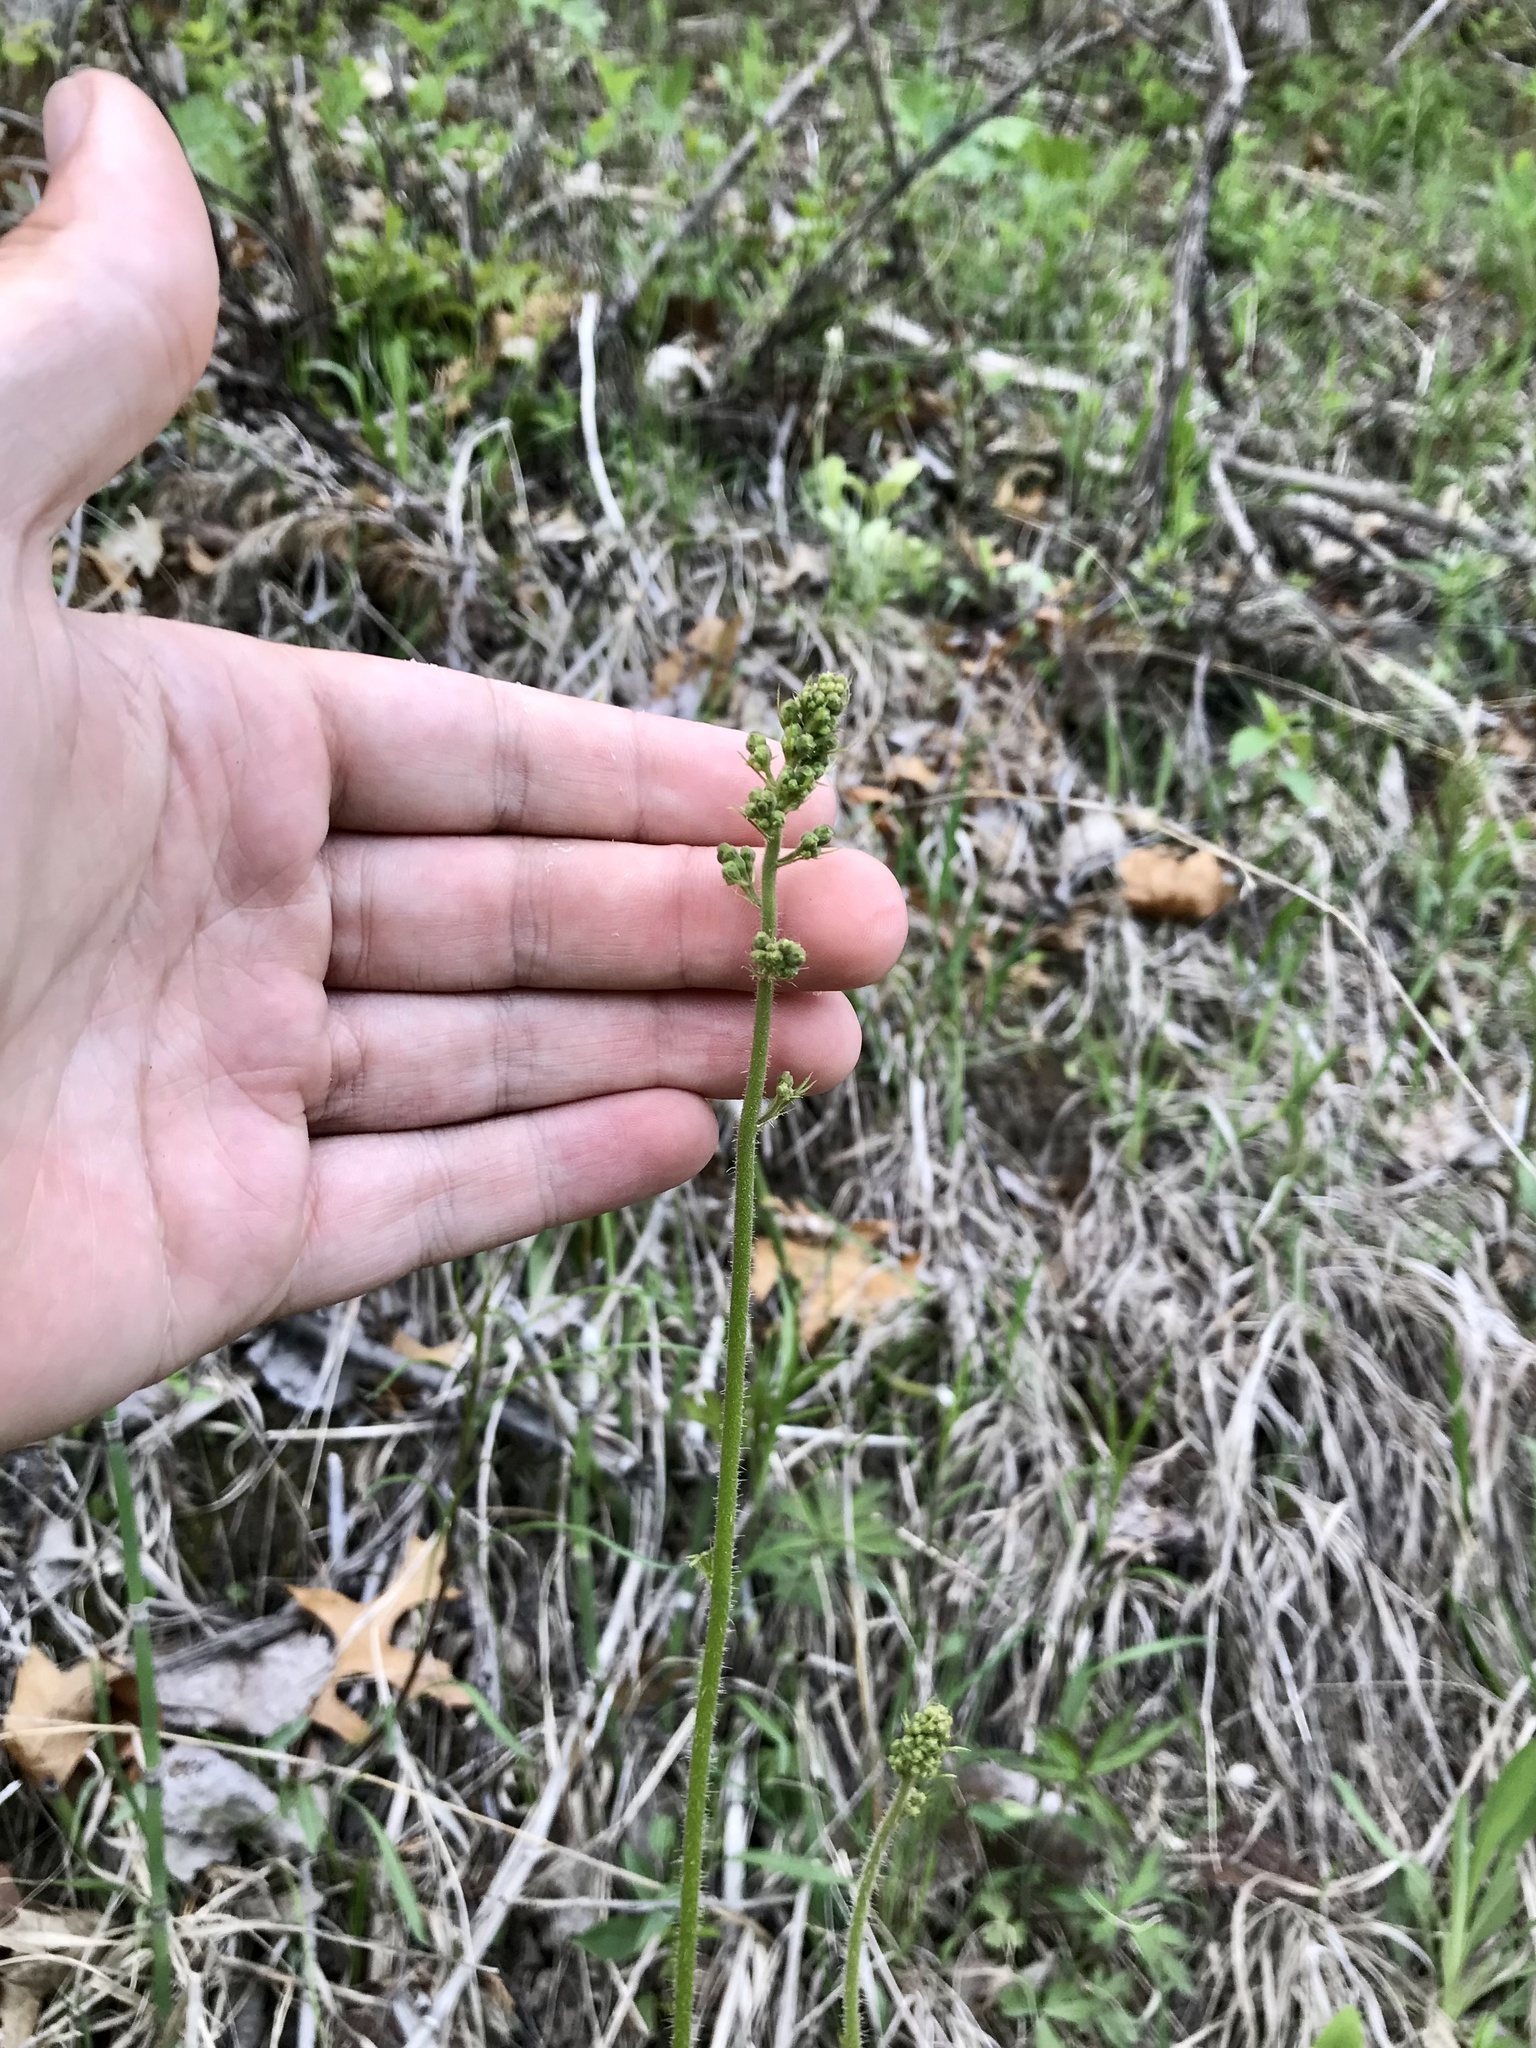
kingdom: Plantae
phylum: Tracheophyta
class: Magnoliopsida
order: Saxifragales
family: Saxifragaceae
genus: Heuchera
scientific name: Heuchera richardsonii
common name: Richardson's alumroot
